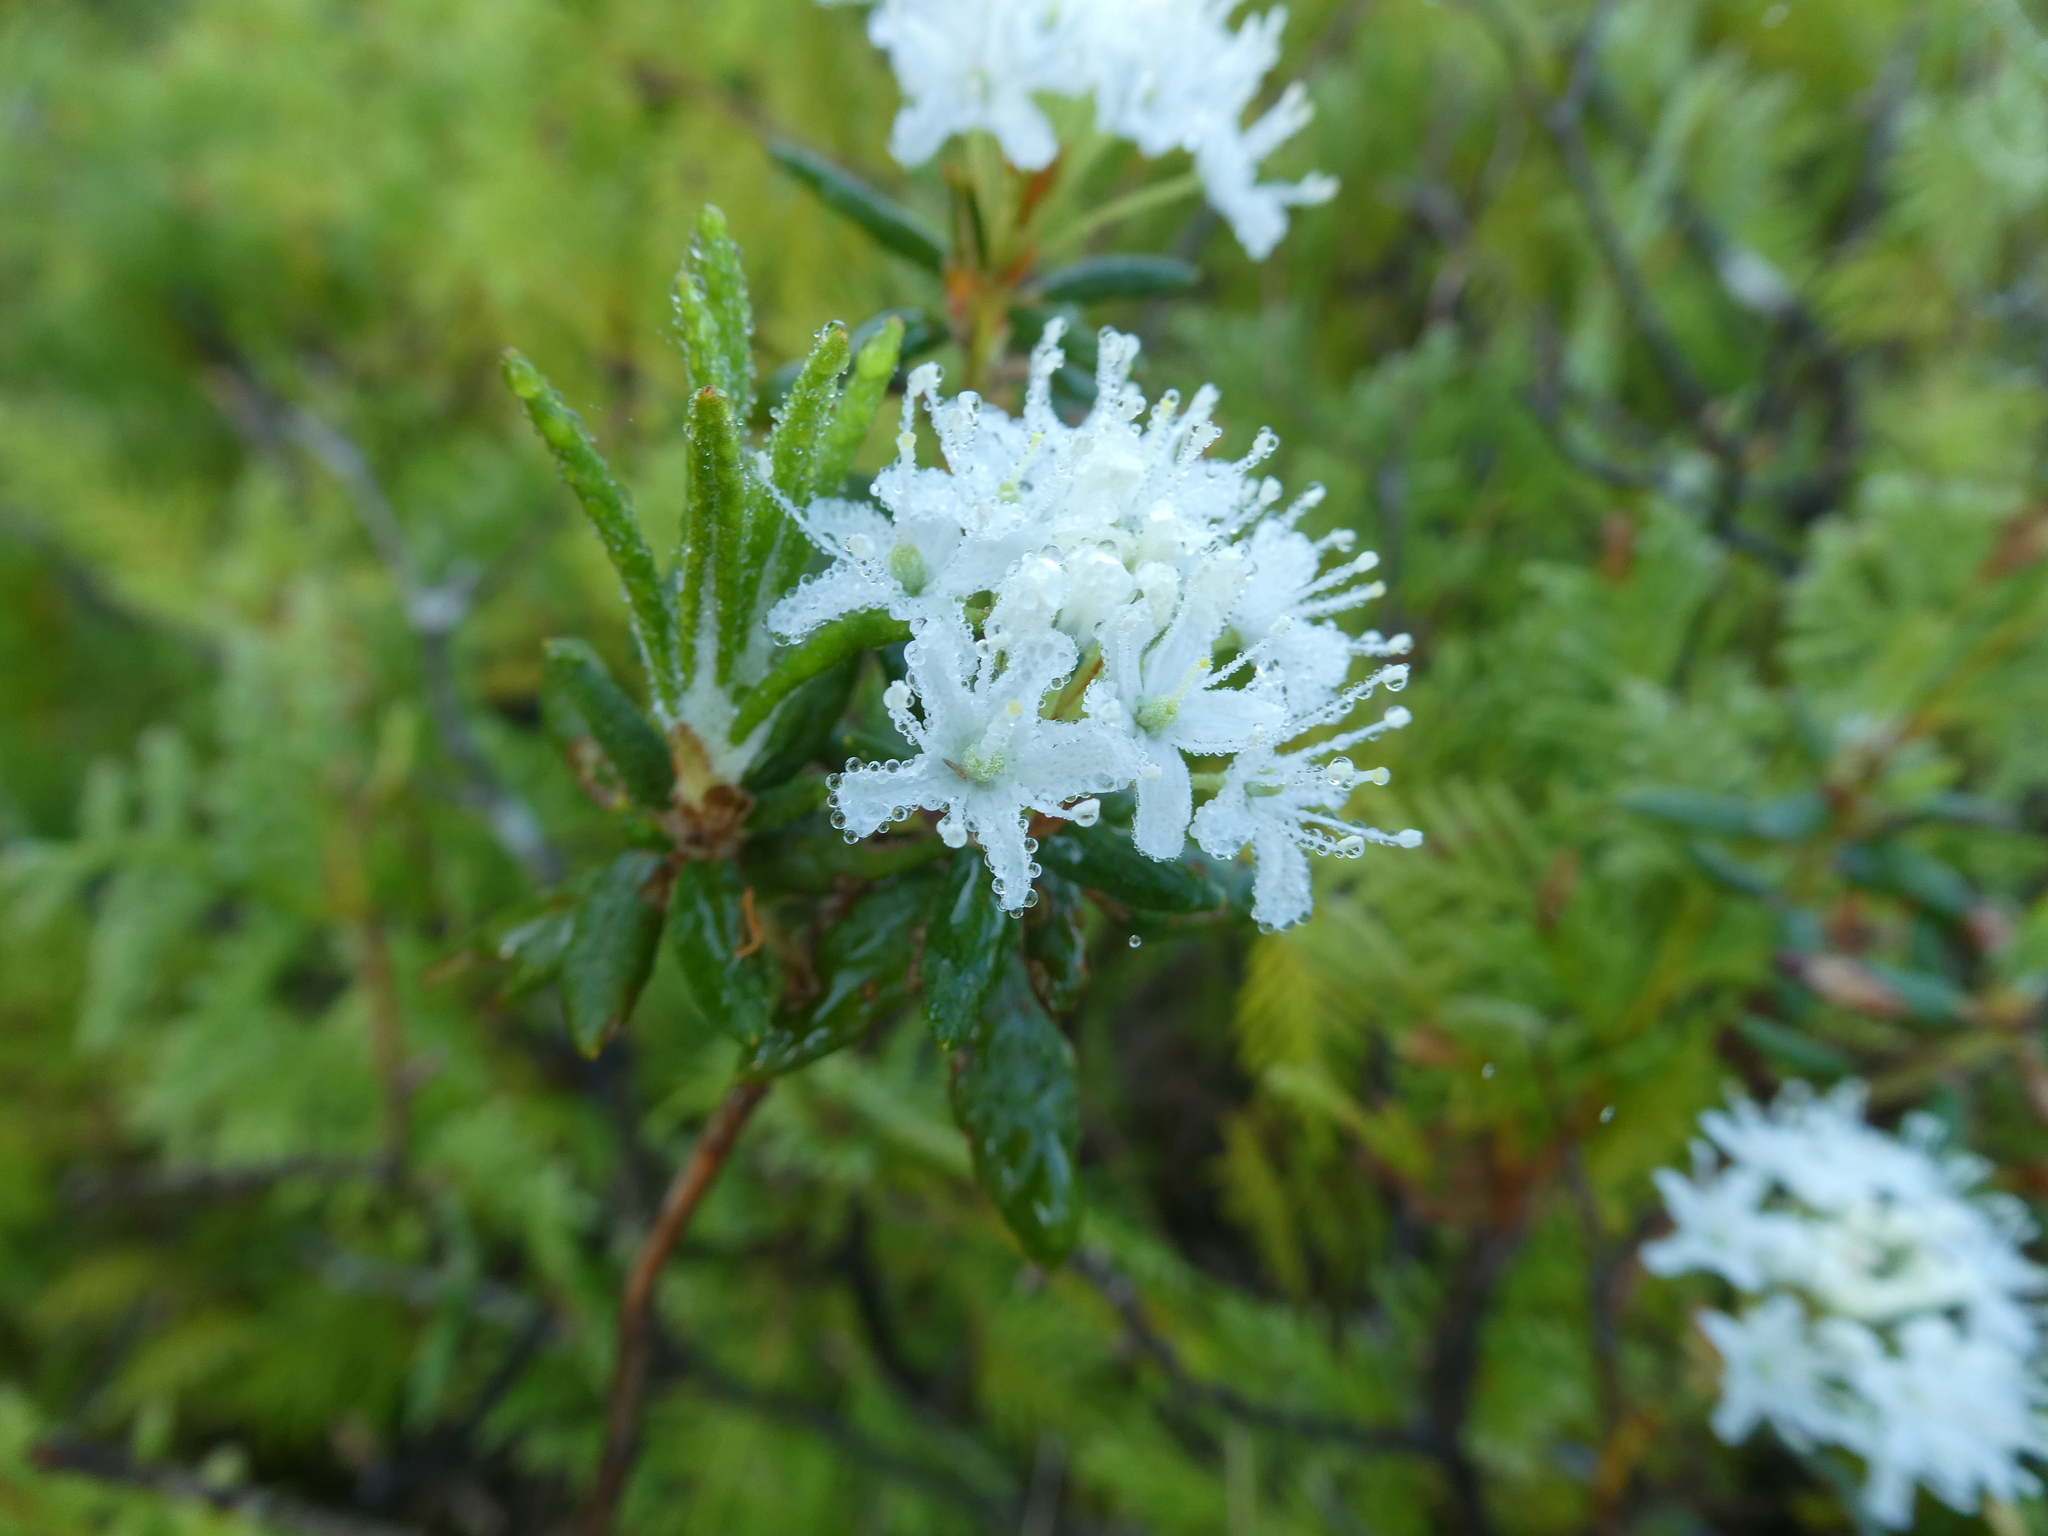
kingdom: Plantae
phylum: Tracheophyta
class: Magnoliopsida
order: Ericales
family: Ericaceae
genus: Rhododendron
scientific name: Rhododendron groenlandicum
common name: Bog labrador tea
